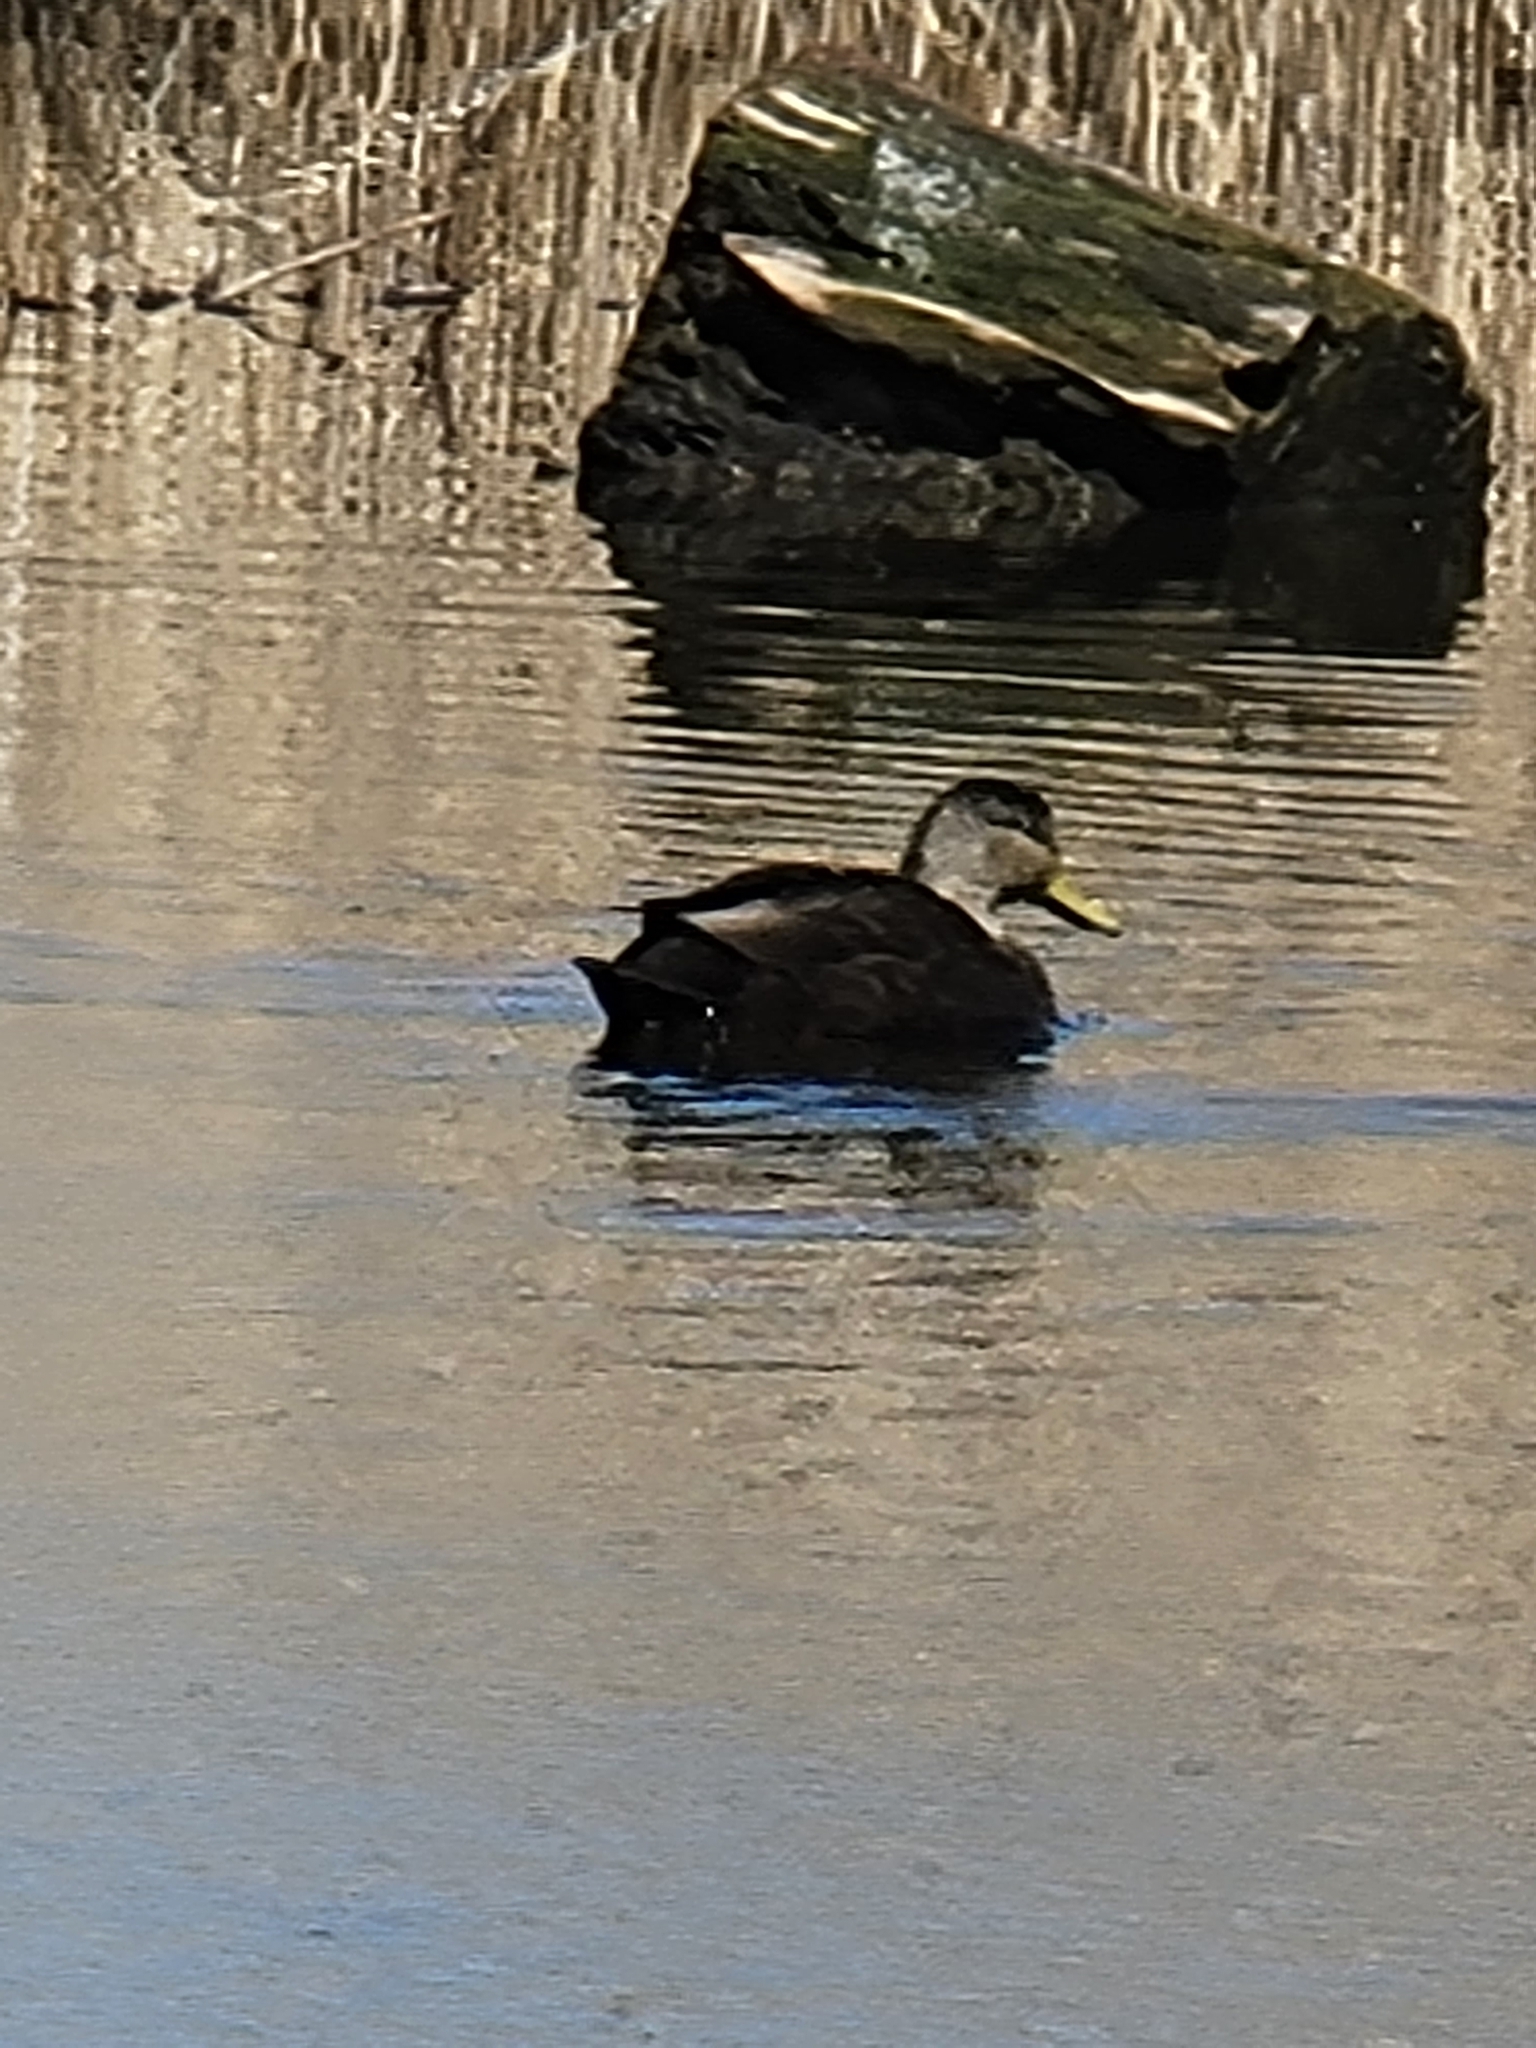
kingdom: Animalia
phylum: Chordata
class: Aves
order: Anseriformes
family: Anatidae
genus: Anas
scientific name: Anas rubripes
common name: American black duck
